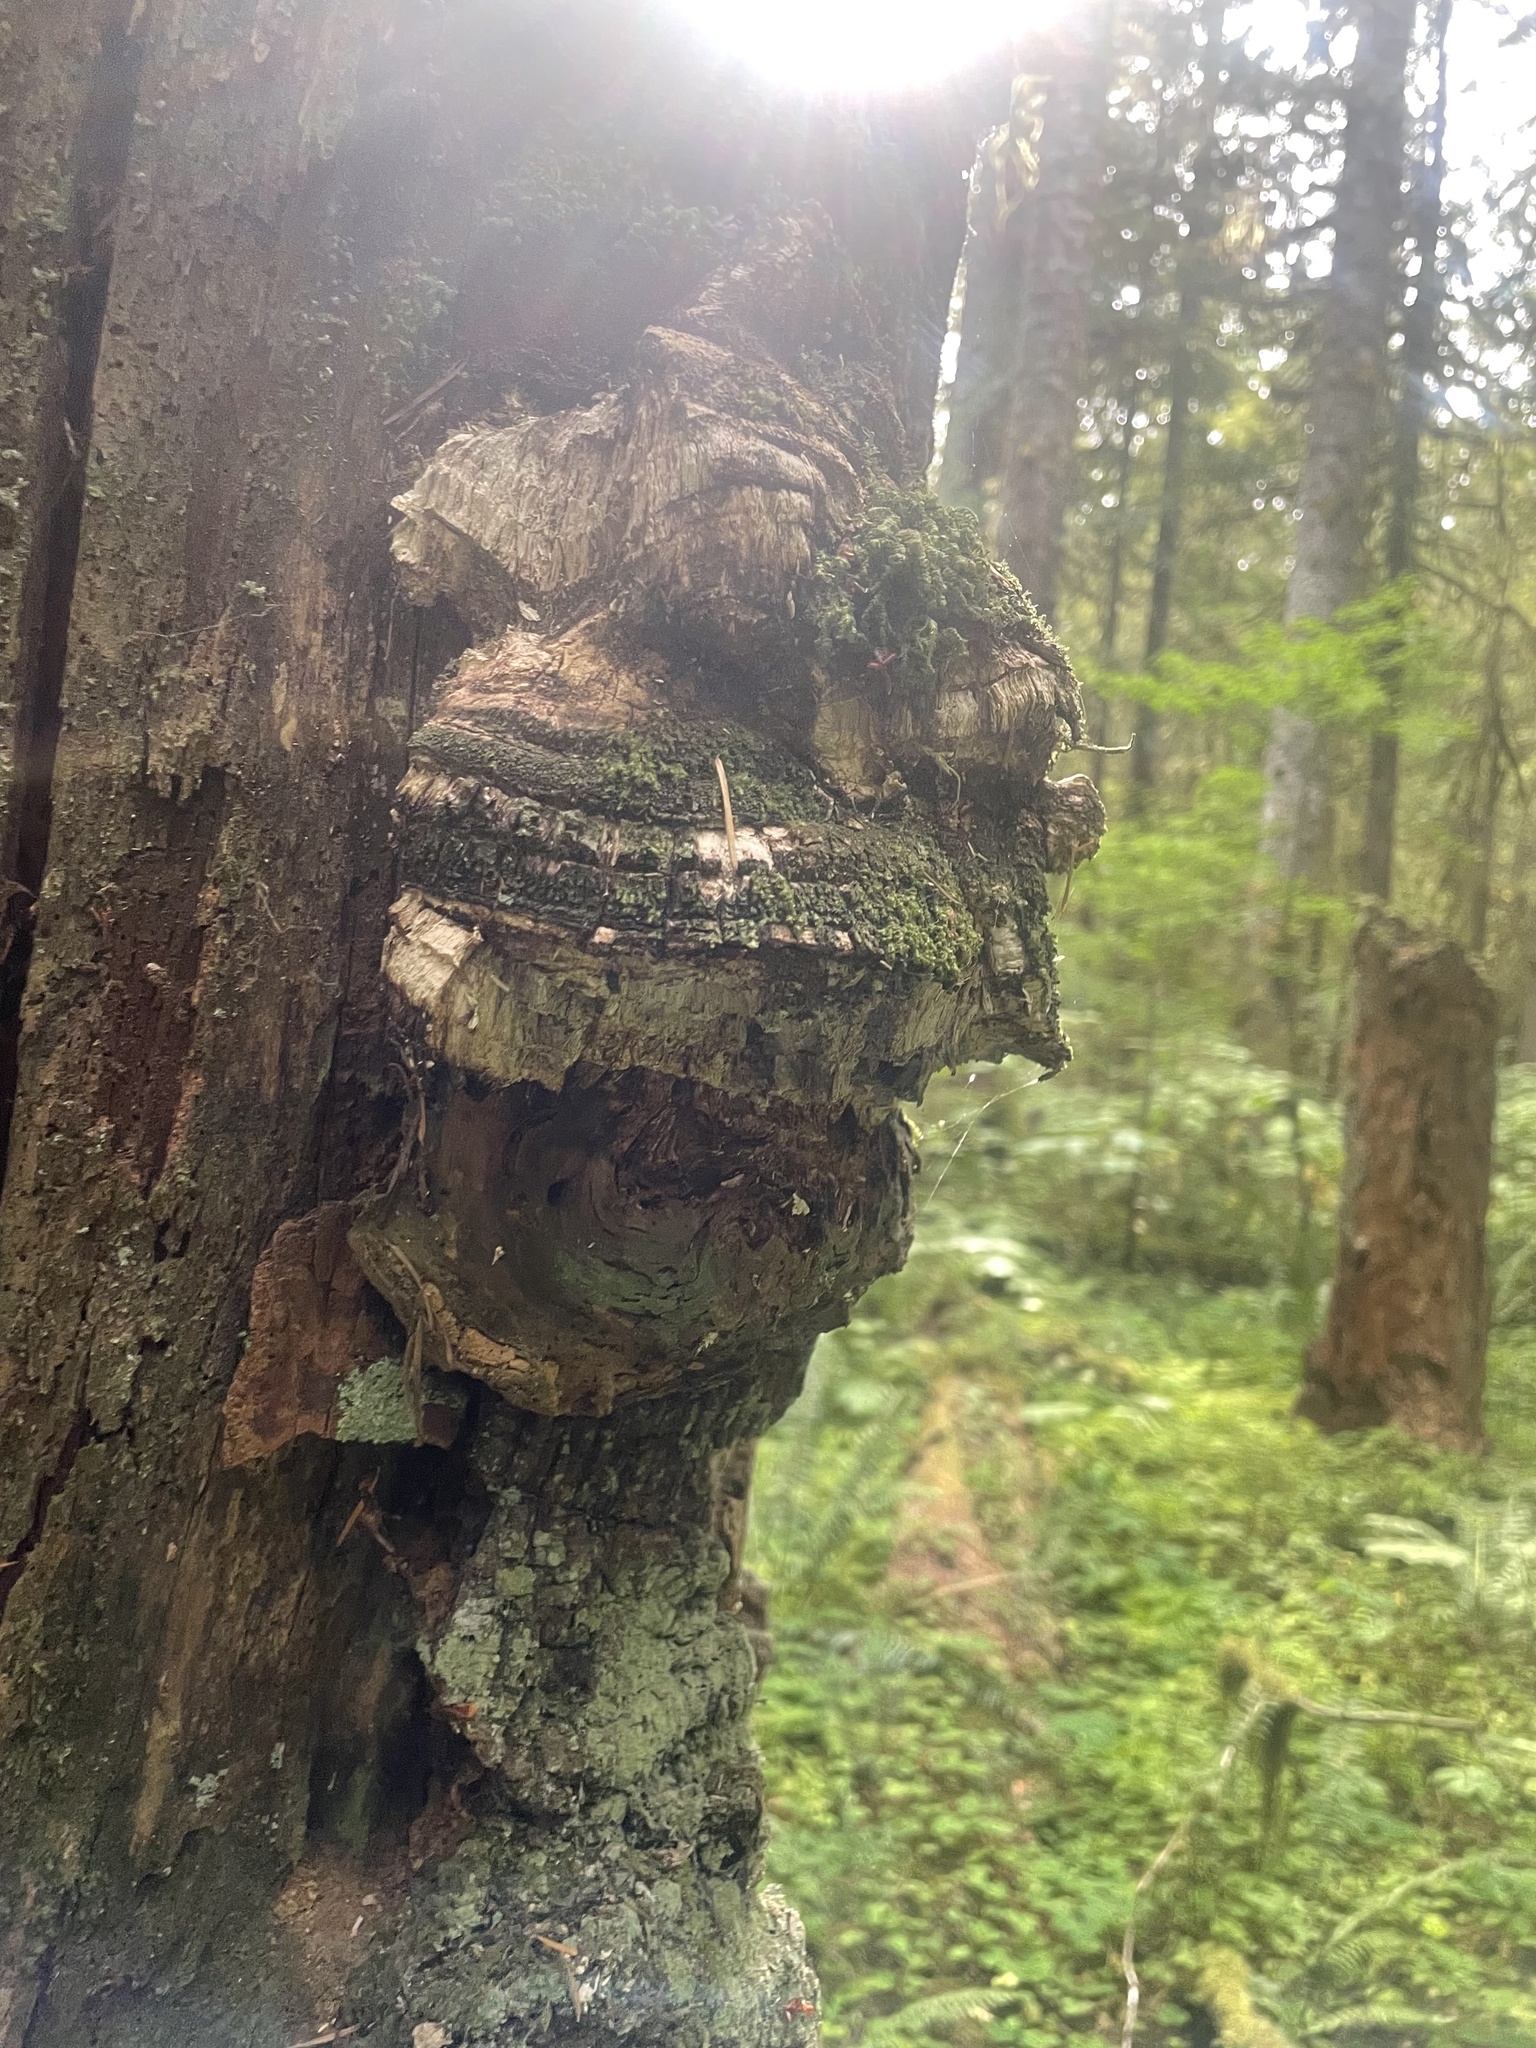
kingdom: Fungi
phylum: Basidiomycota
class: Agaricomycetes
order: Polyporales
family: Fomitopsidaceae
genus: Fomitopsis
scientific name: Fomitopsis officinalis
